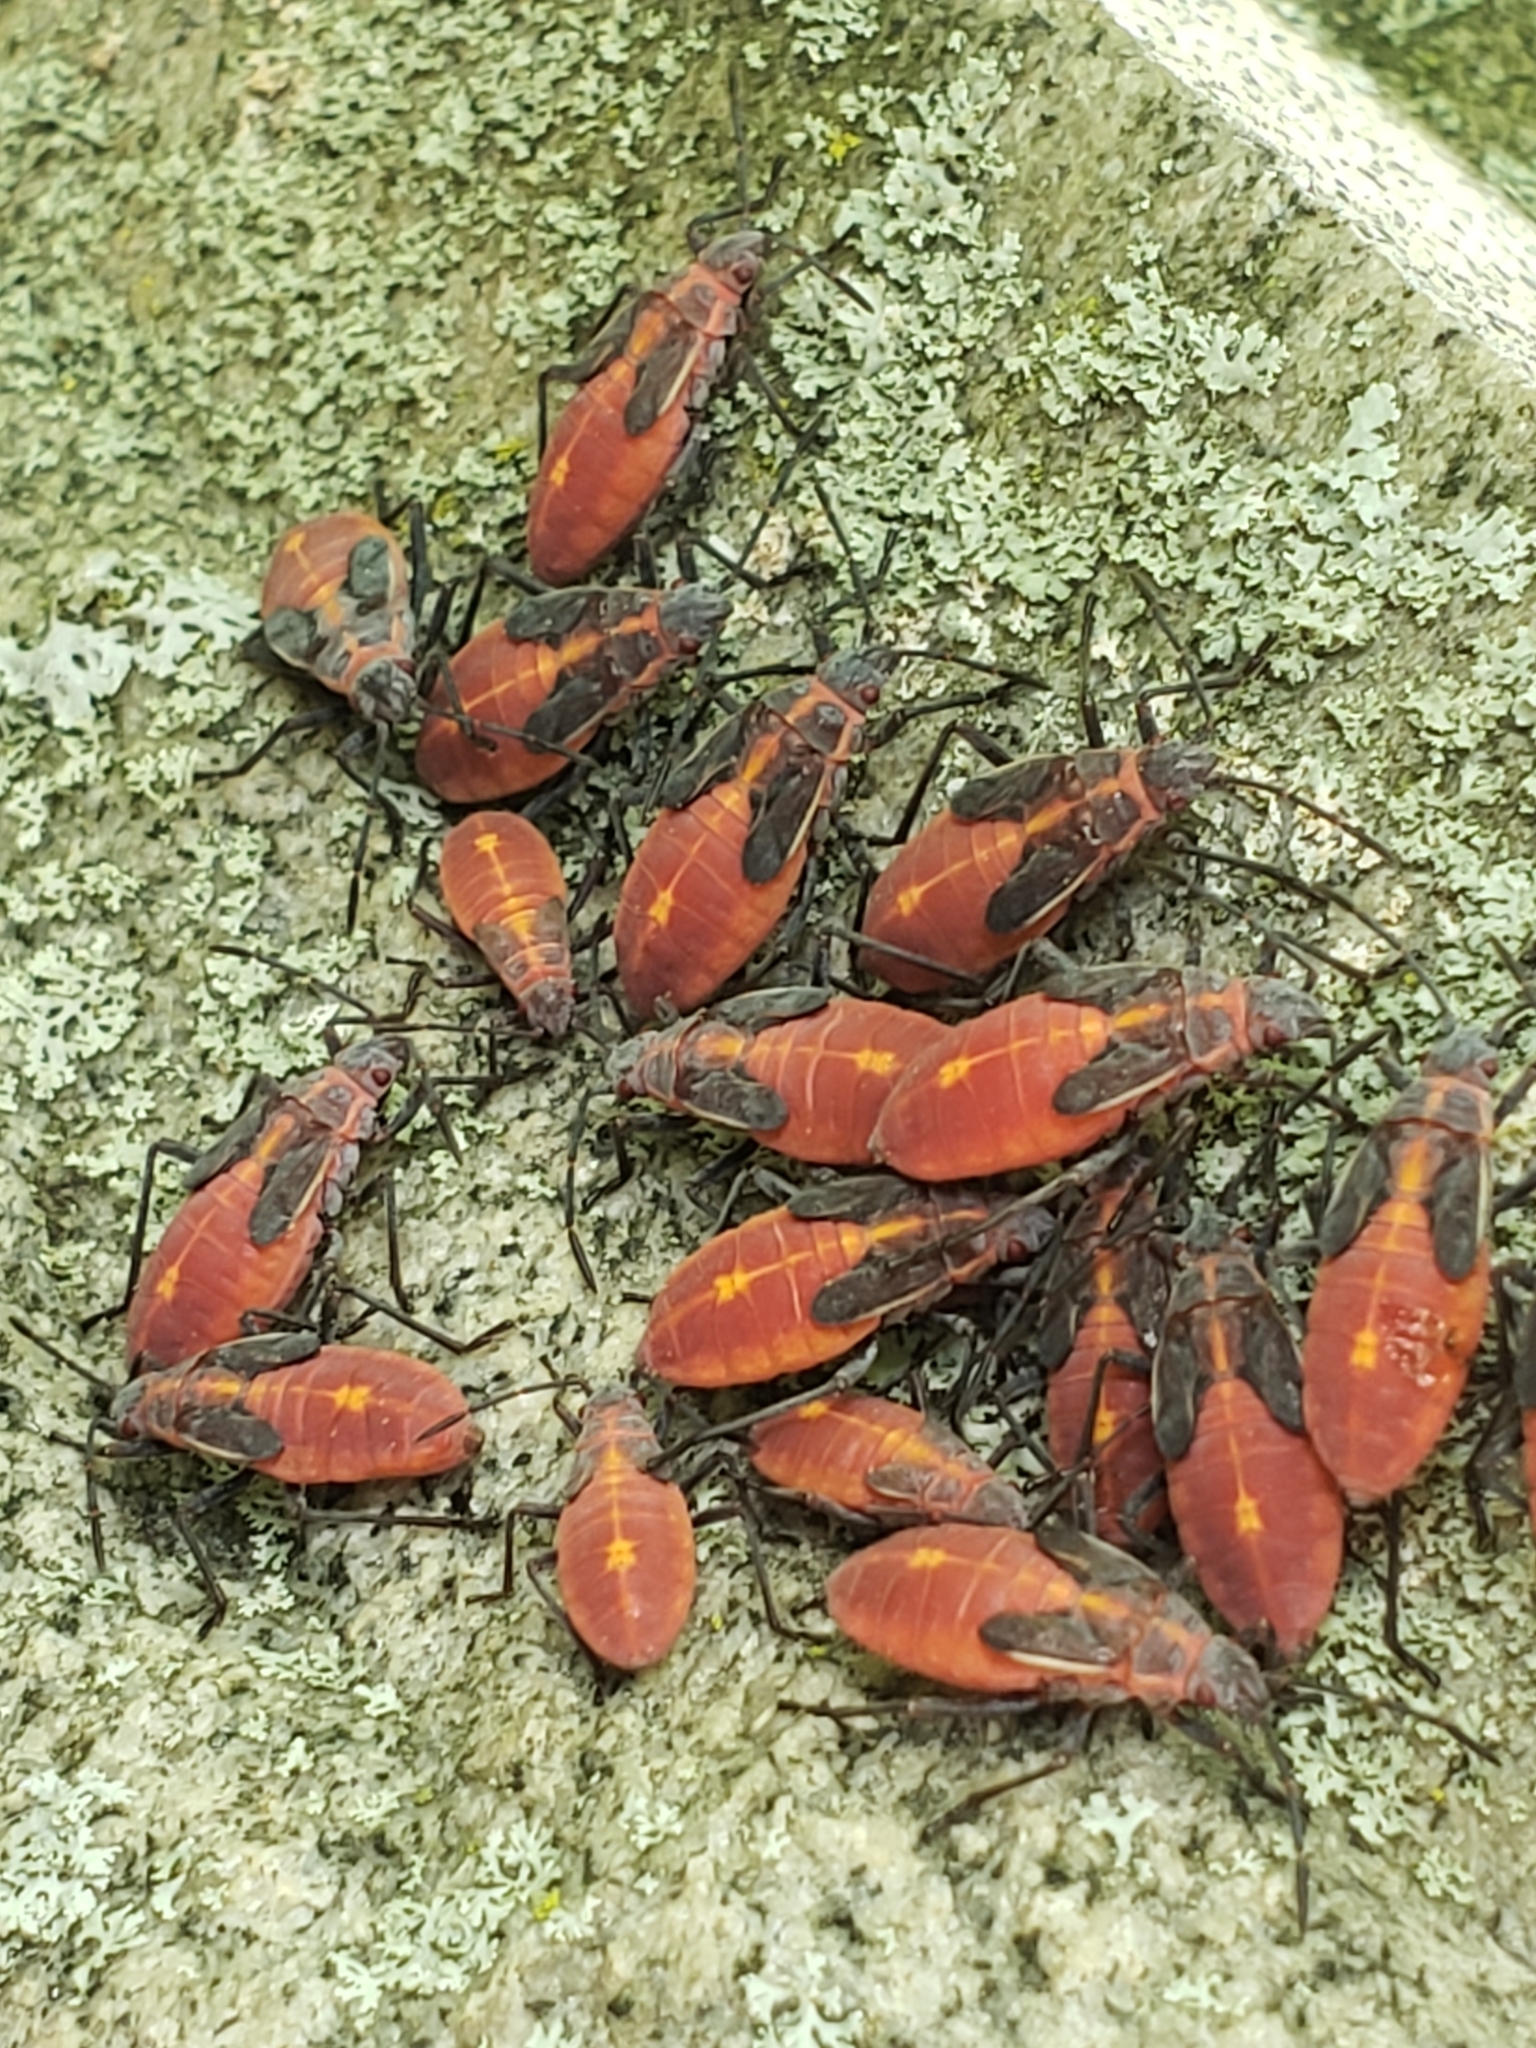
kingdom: Animalia
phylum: Arthropoda
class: Insecta
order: Hemiptera
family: Rhopalidae
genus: Boisea
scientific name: Boisea trivittata
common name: Boxelder bug
